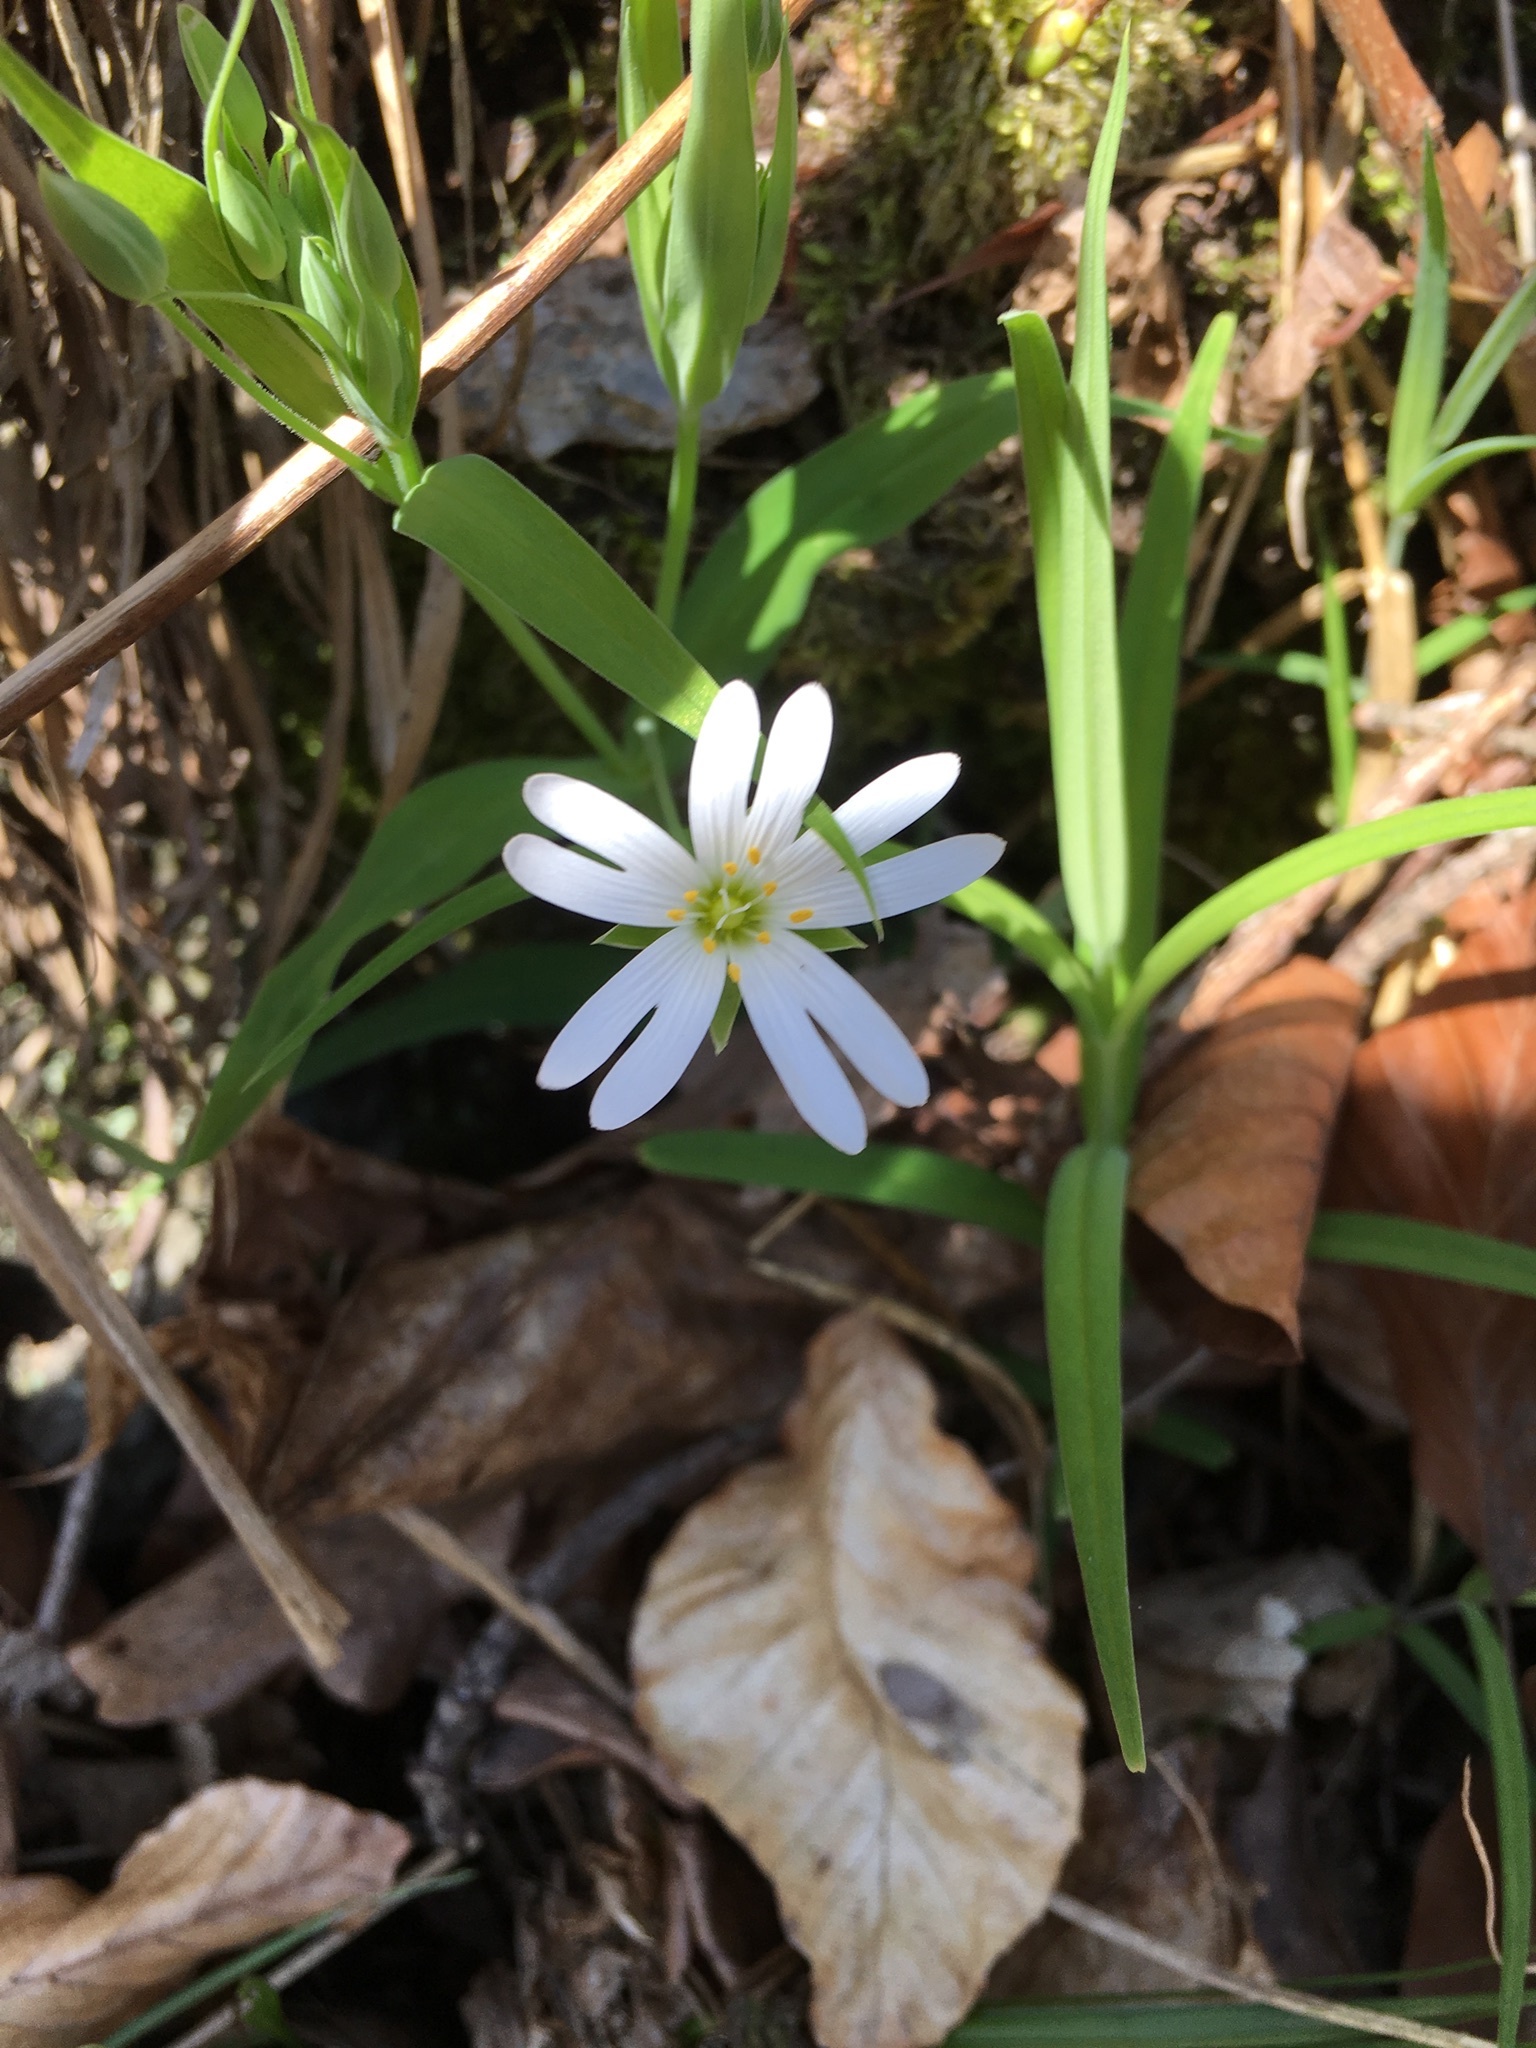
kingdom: Plantae
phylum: Tracheophyta
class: Magnoliopsida
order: Caryophyllales
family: Caryophyllaceae
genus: Rabelera
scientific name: Rabelera holostea
